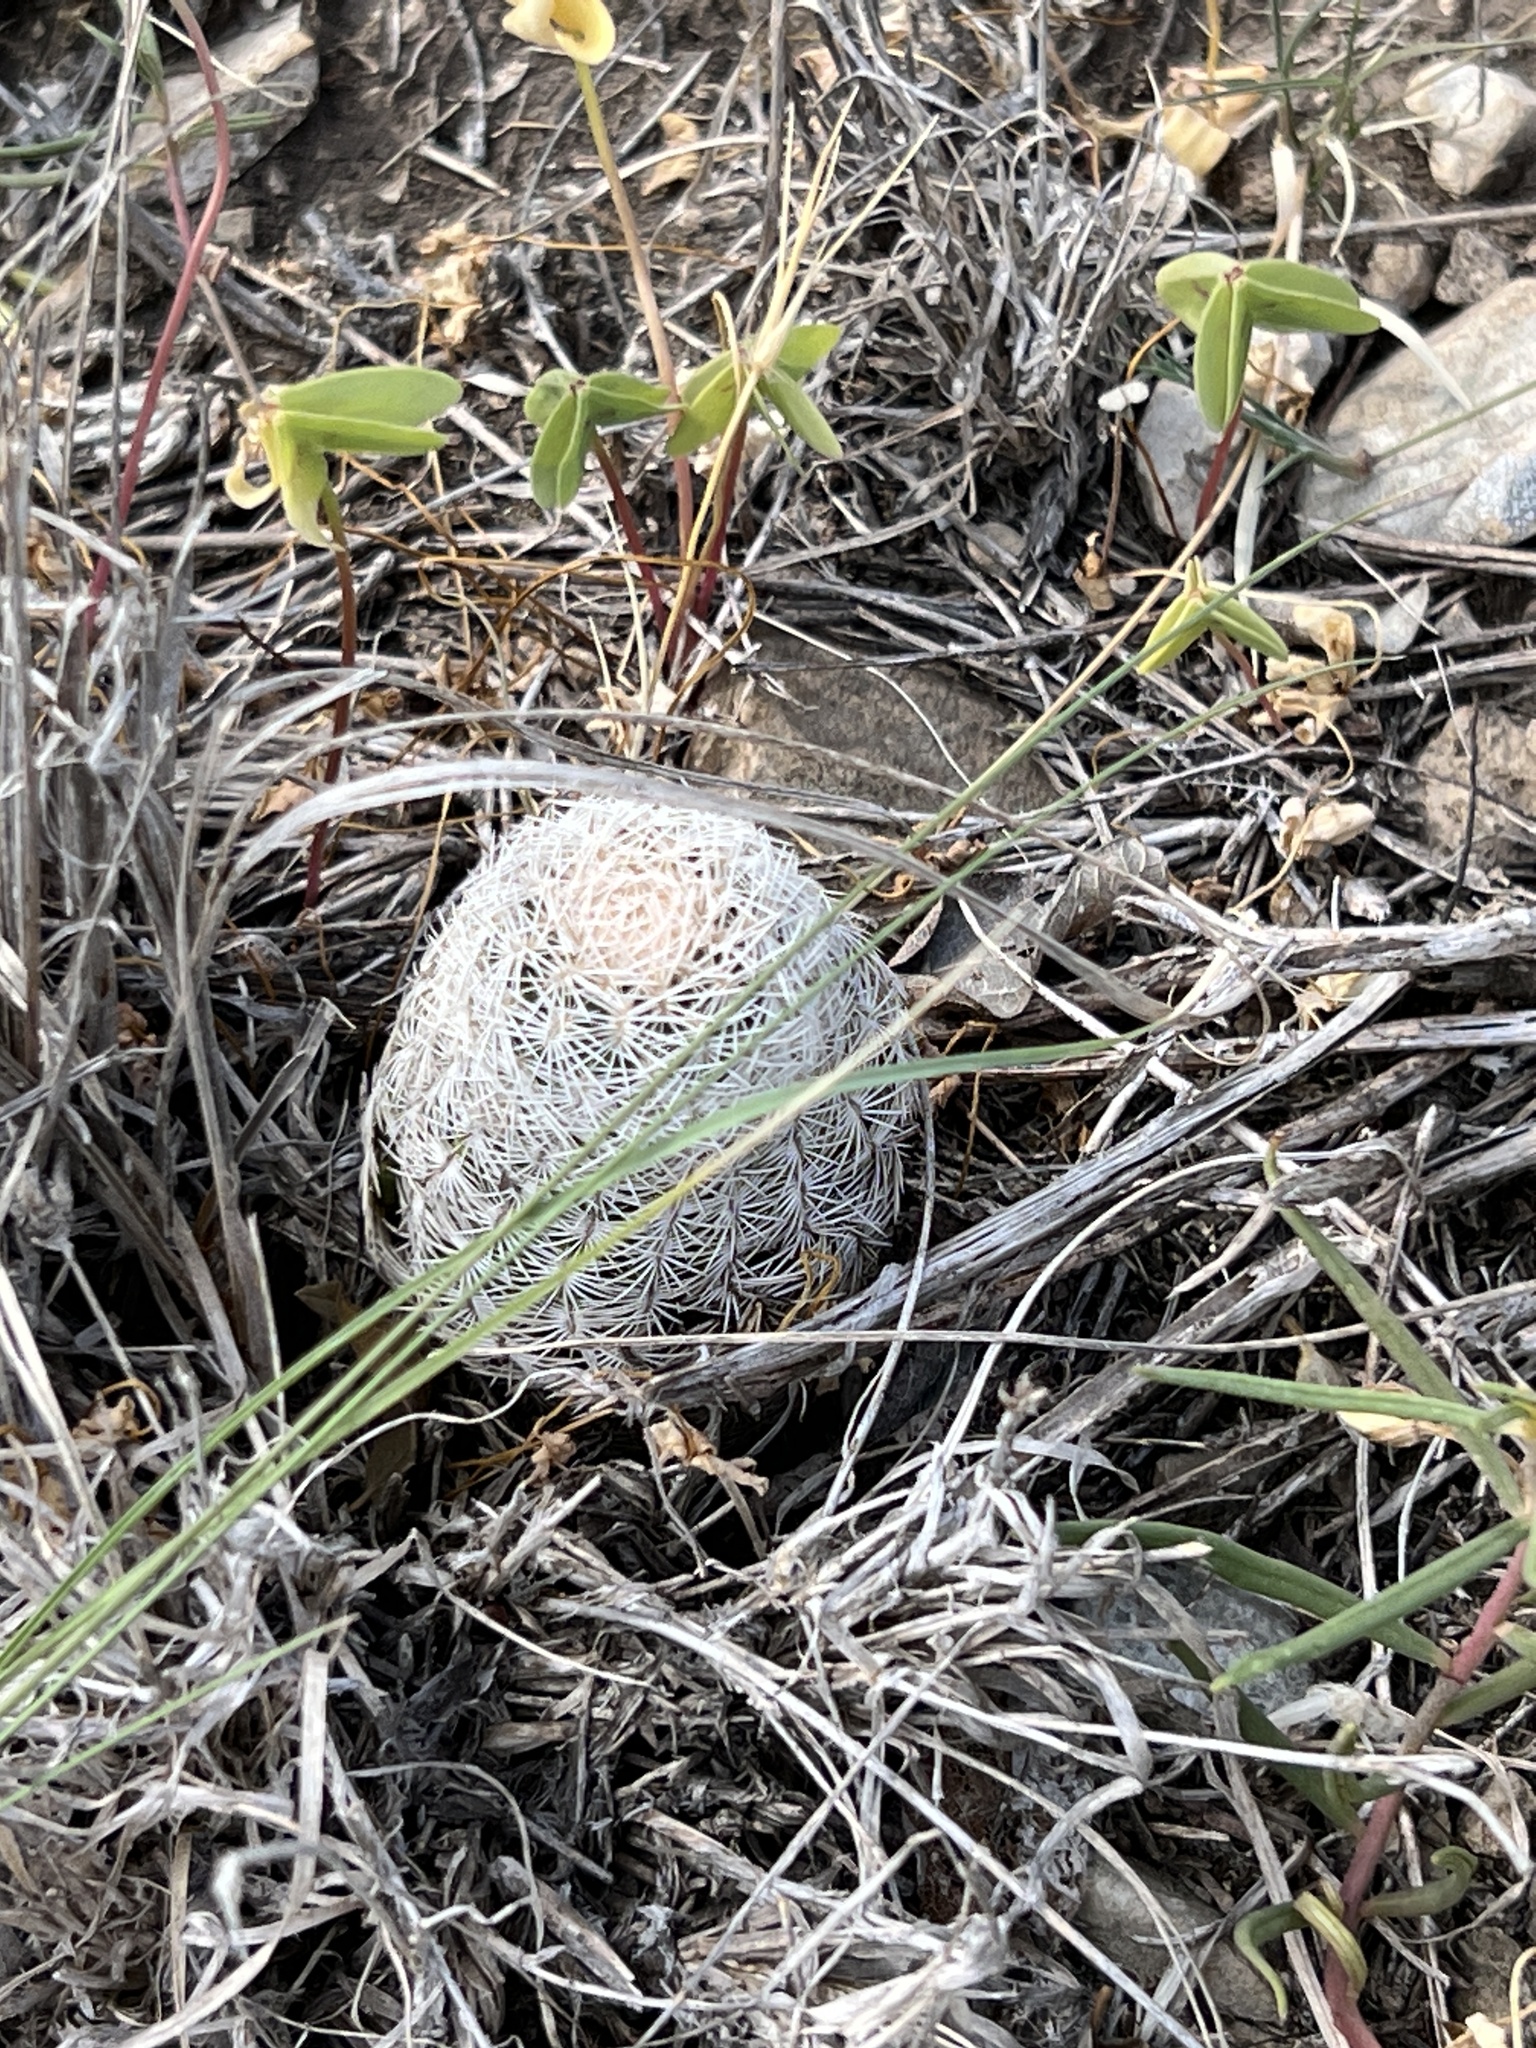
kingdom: Plantae
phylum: Tracheophyta
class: Magnoliopsida
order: Caryophyllales
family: Cactaceae
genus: Echinocereus
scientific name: Echinocereus reichenbachii
